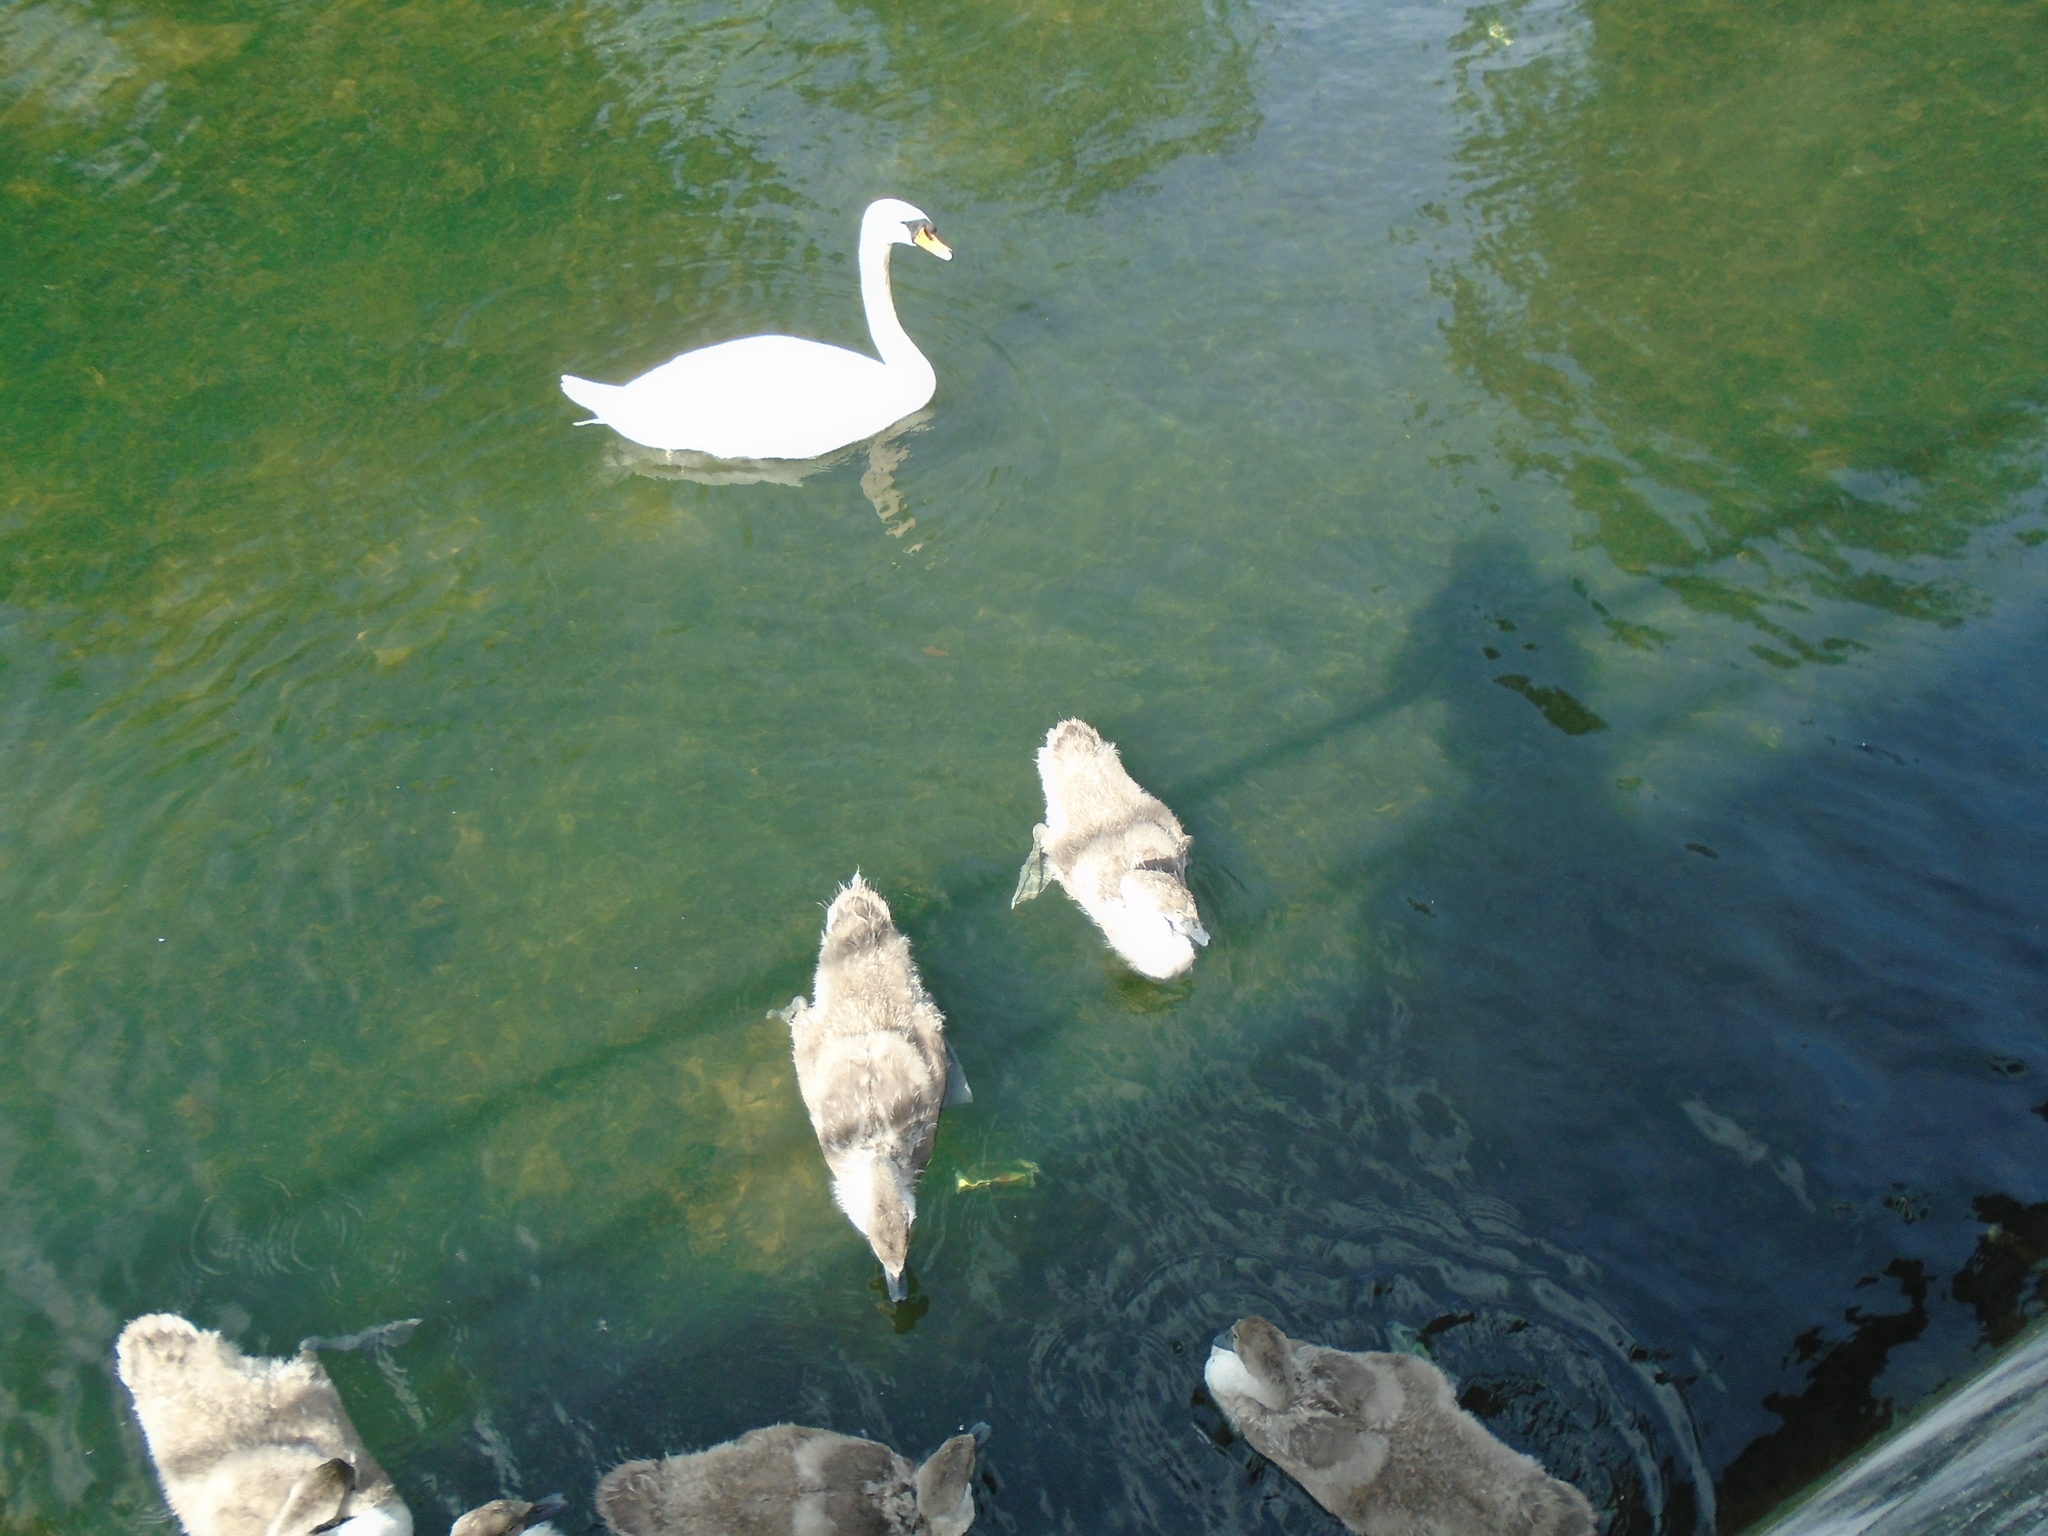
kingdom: Animalia
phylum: Chordata
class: Aves
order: Anseriformes
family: Anatidae
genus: Cygnus
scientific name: Cygnus olor
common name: Mute swan
